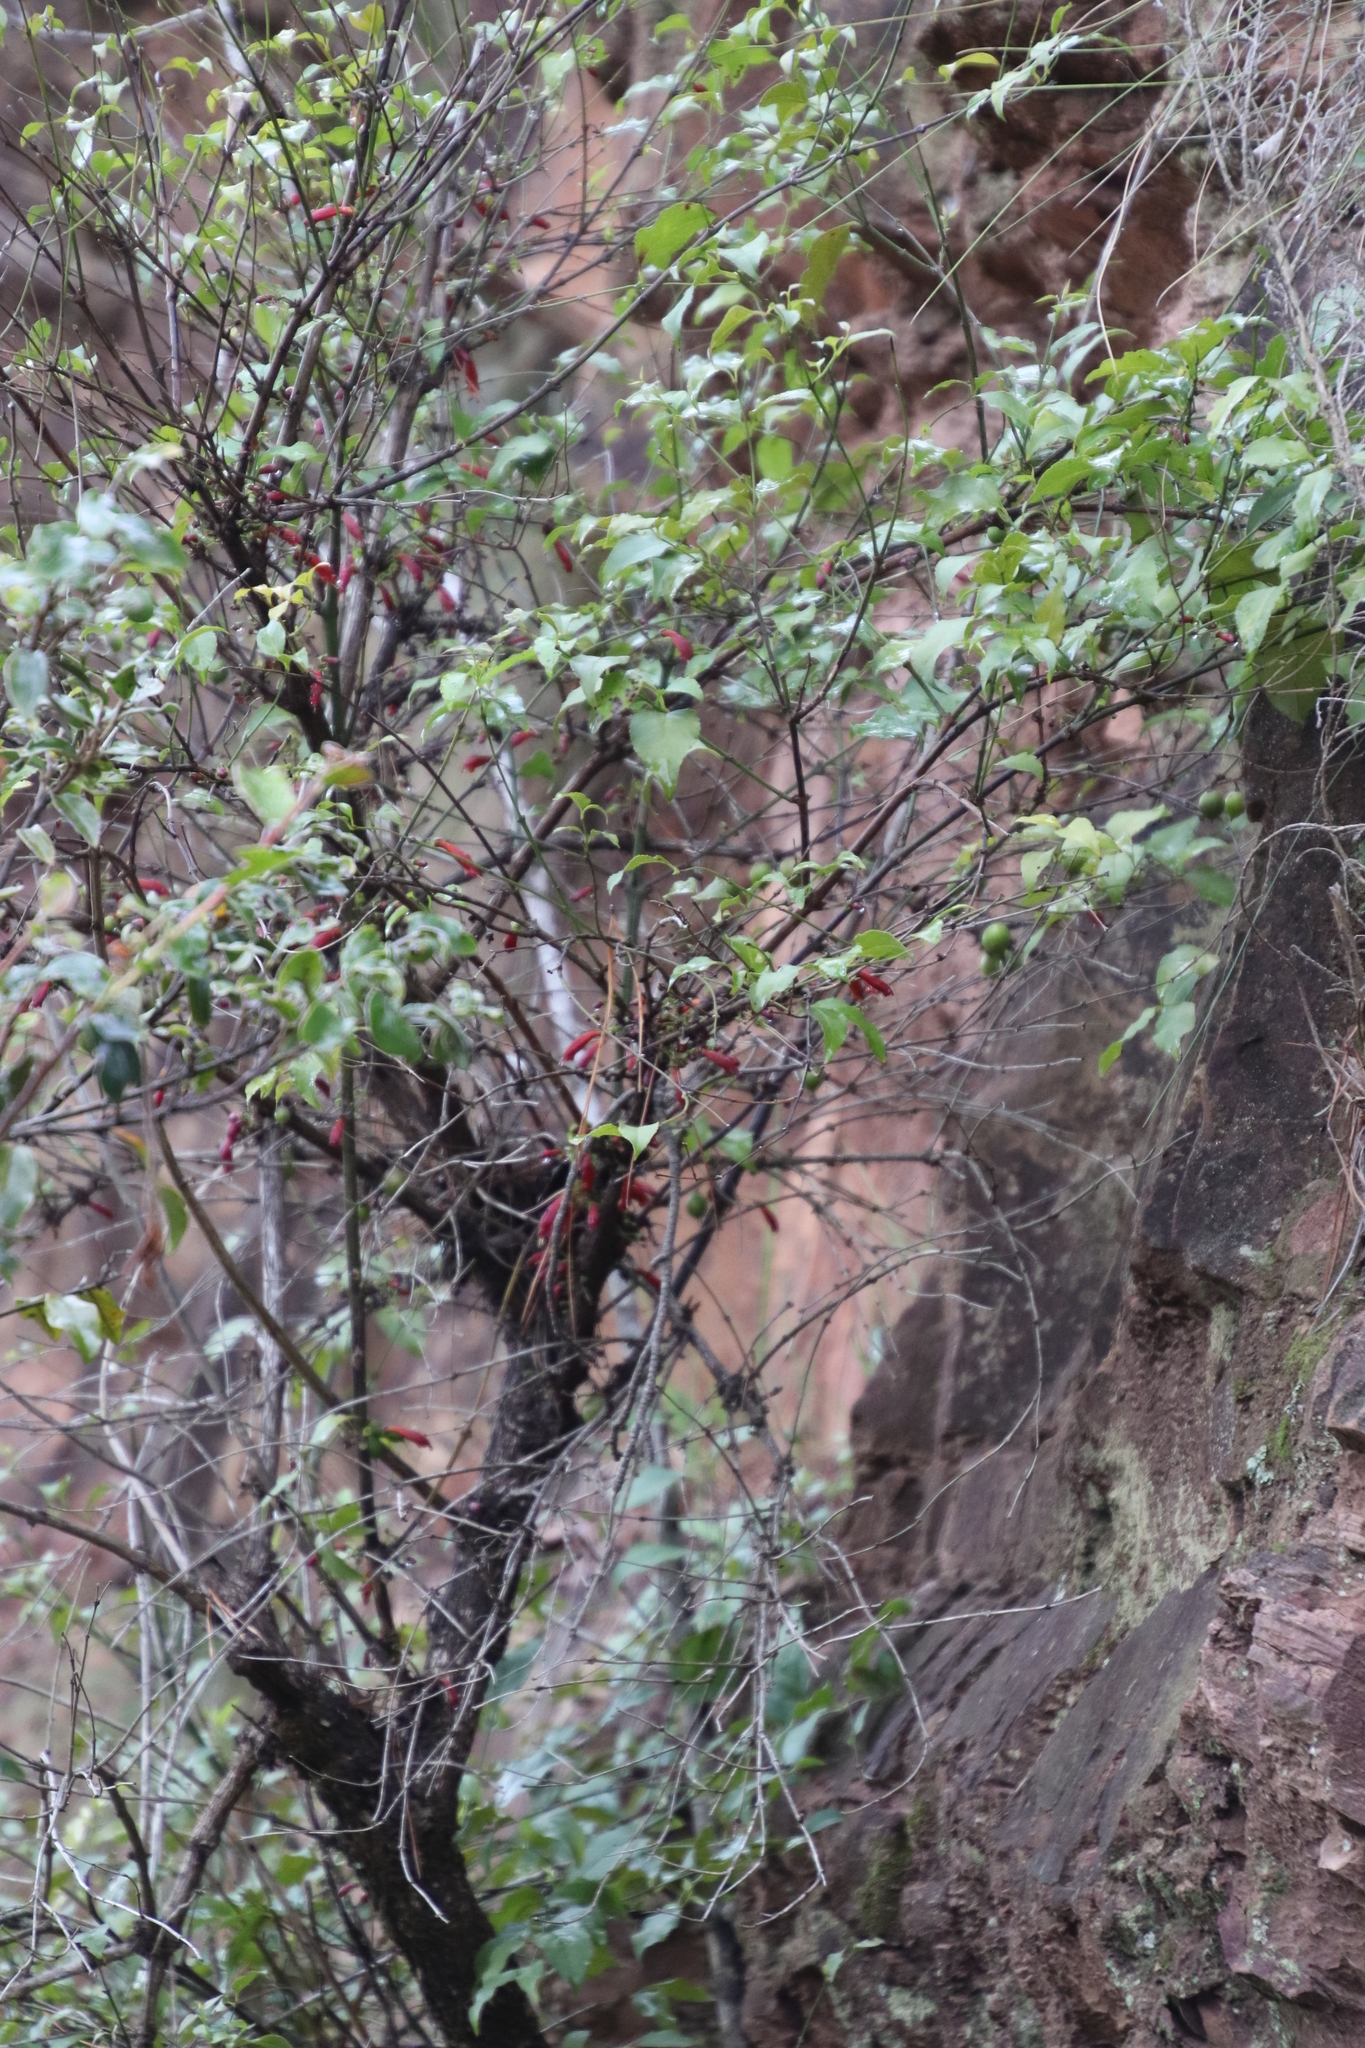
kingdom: Plantae
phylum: Tracheophyta
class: Magnoliopsida
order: Lamiales
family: Stilbaceae
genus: Halleria
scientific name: Halleria lucida
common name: Tree fuschia
